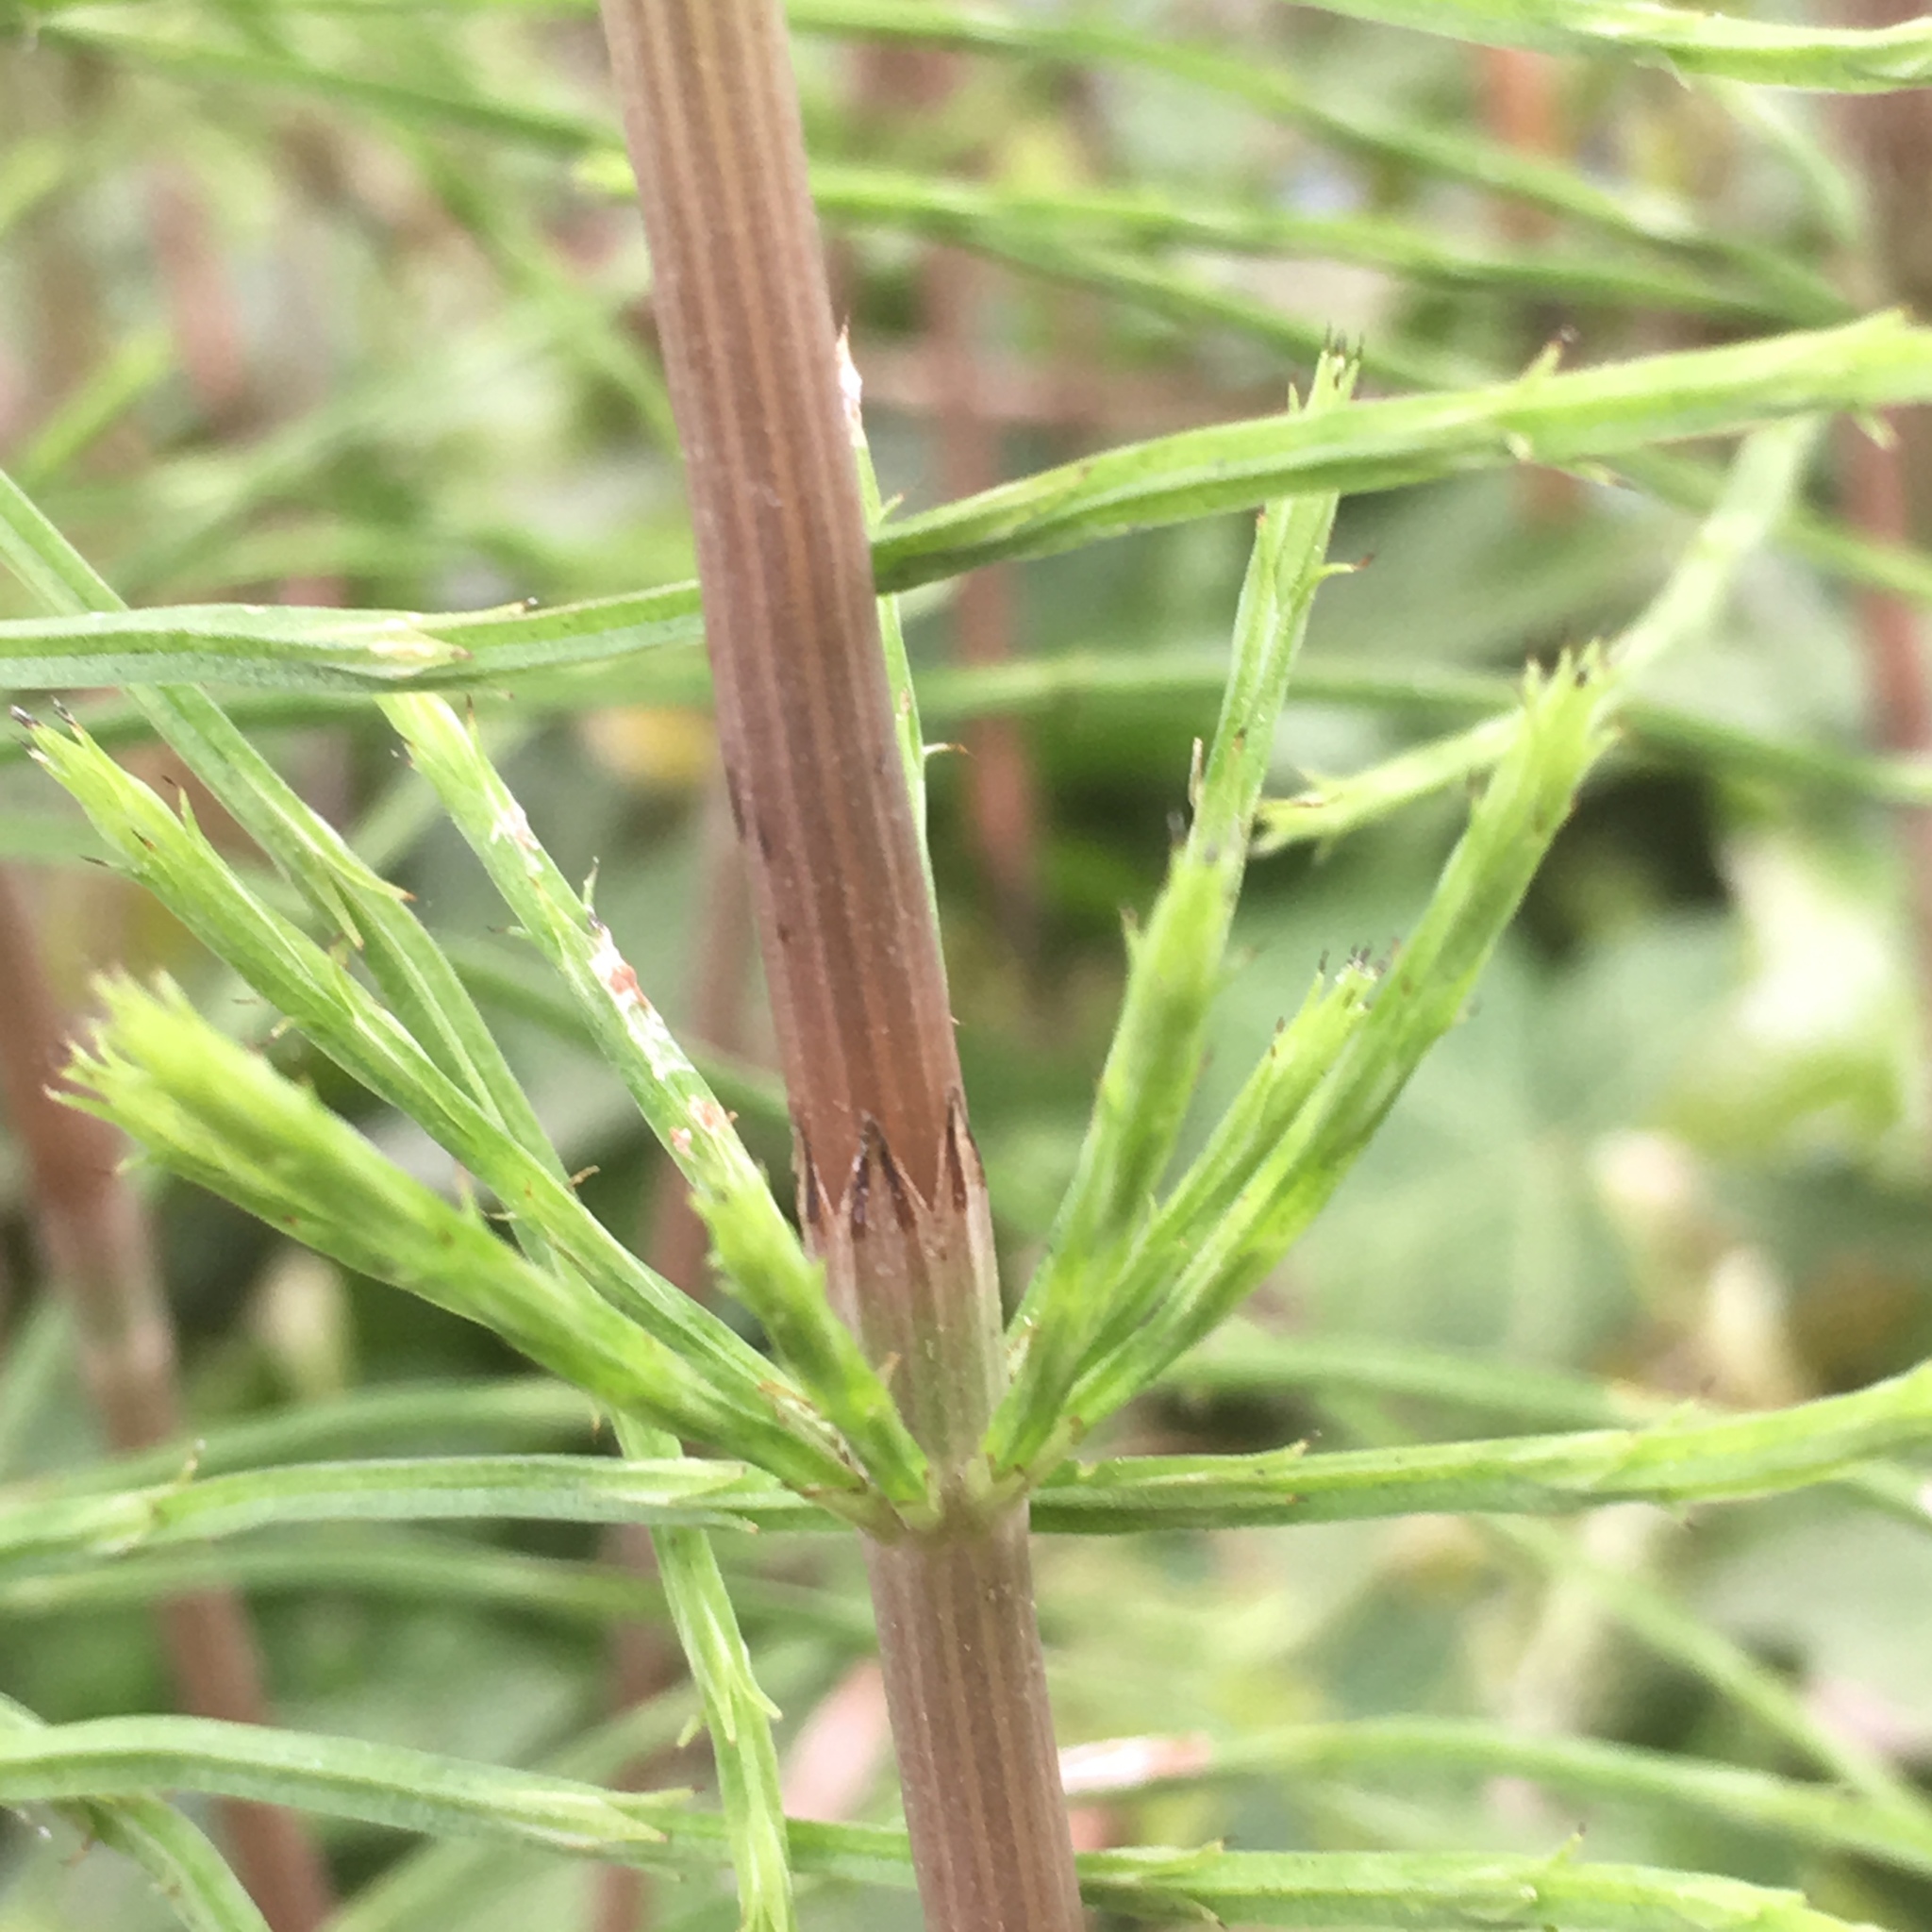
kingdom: Plantae
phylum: Tracheophyta
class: Polypodiopsida
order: Equisetales
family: Equisetaceae
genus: Equisetum
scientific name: Equisetum arvense
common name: Field horsetail
